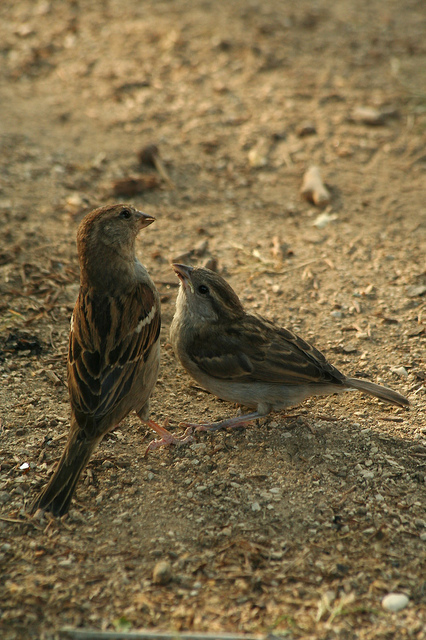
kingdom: Animalia
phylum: Chordata
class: Aves
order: Passeriformes
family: Passeridae
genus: Passer
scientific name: Passer italiae
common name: Italian sparrow
